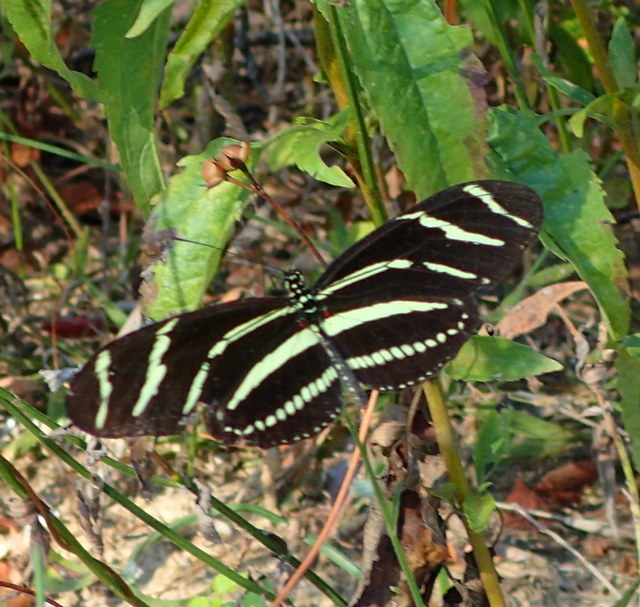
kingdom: Animalia
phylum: Arthropoda
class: Insecta
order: Lepidoptera
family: Nymphalidae
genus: Heliconius
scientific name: Heliconius charithonia
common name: Zebra long wing
